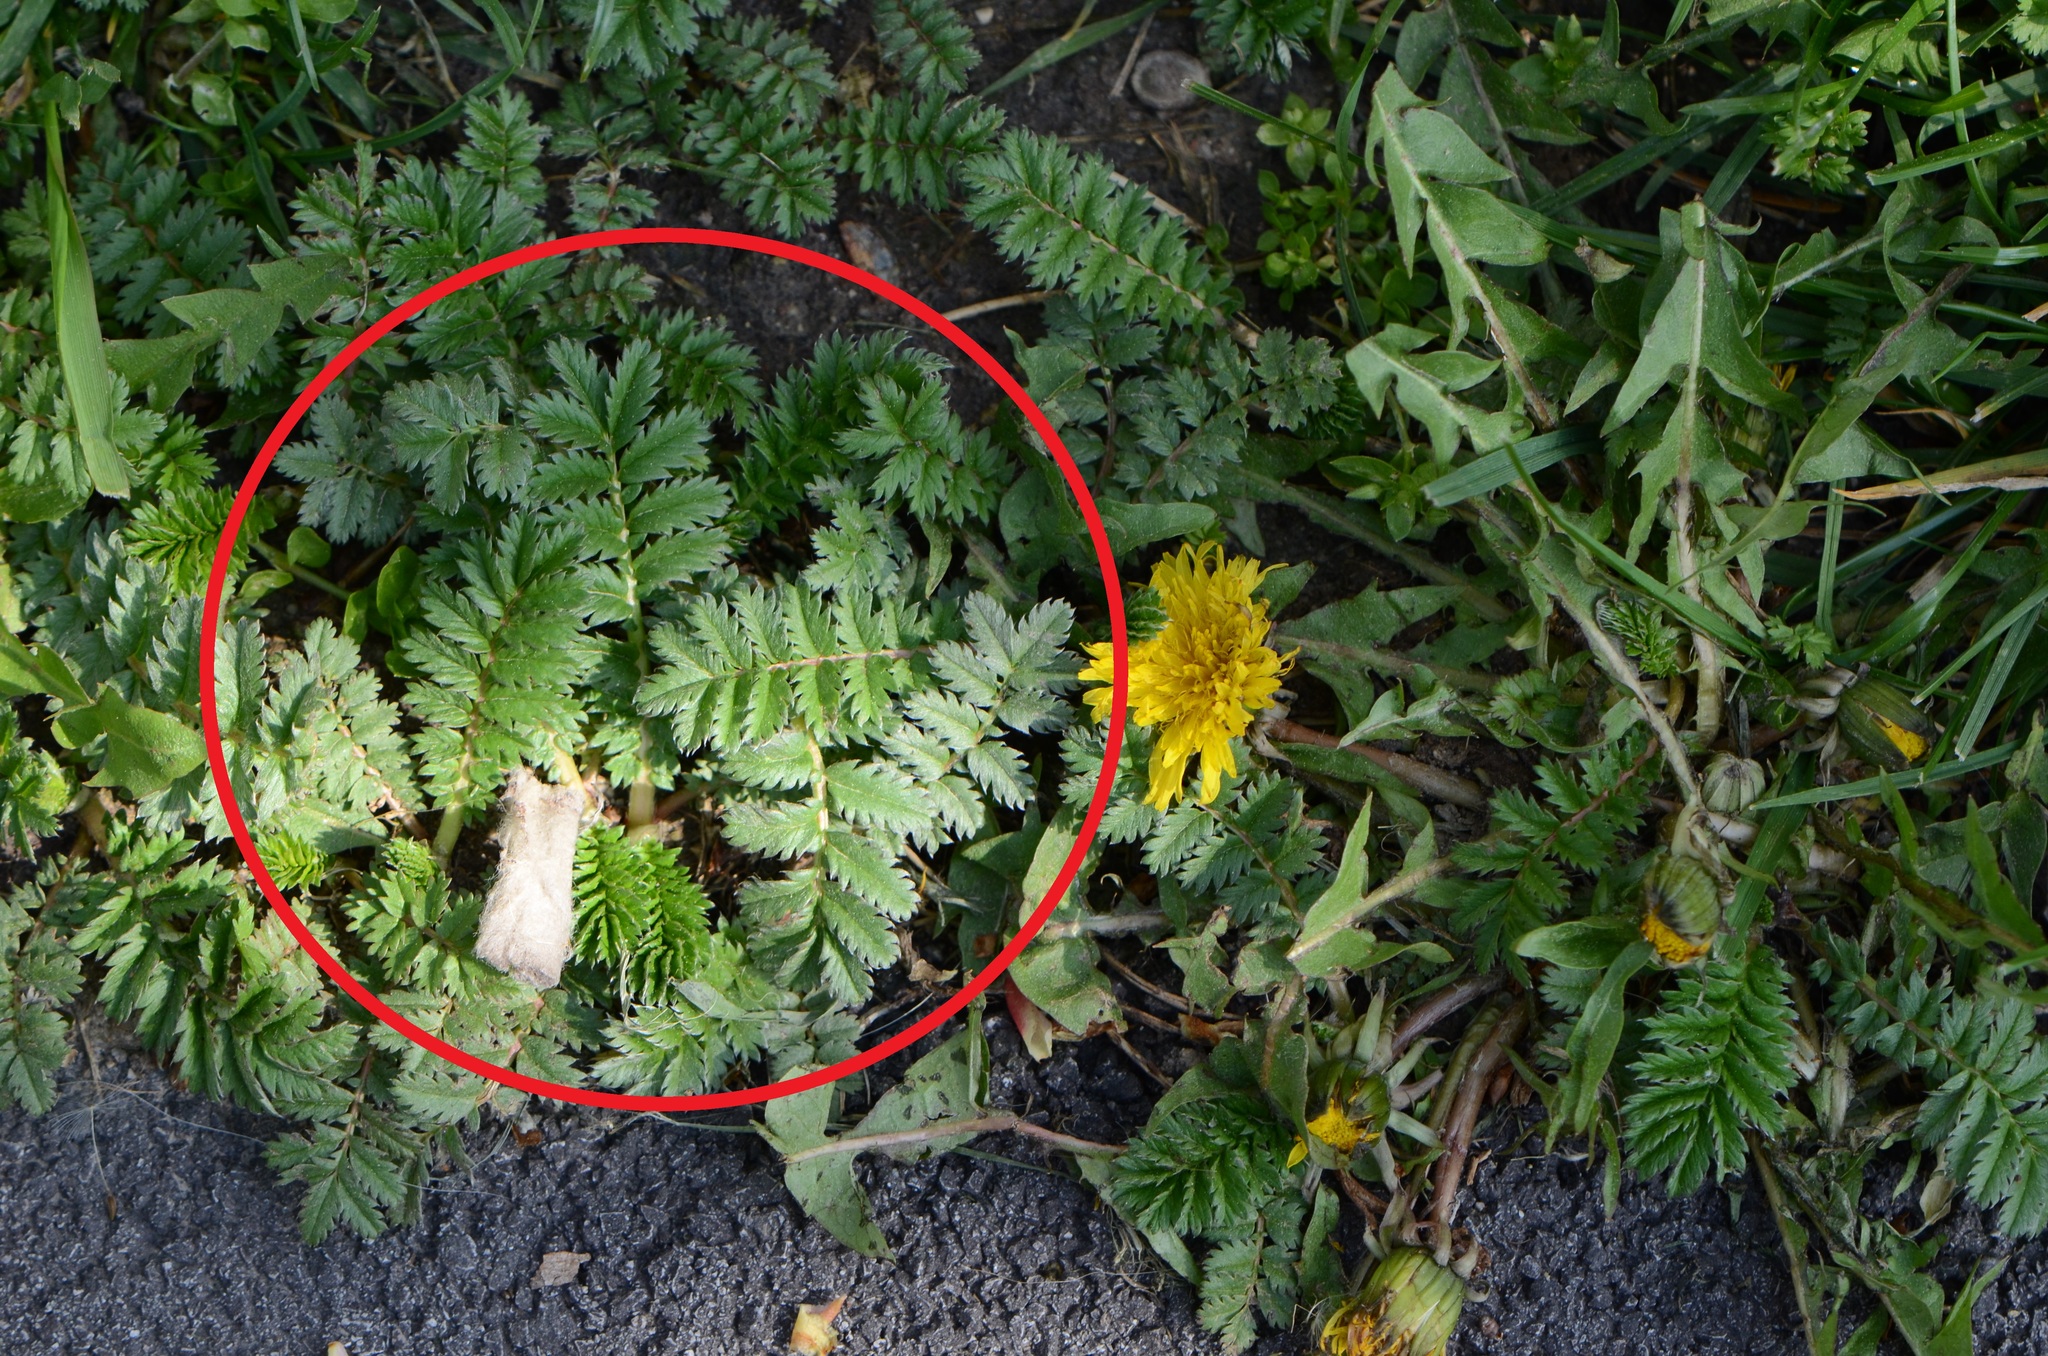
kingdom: Plantae
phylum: Tracheophyta
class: Magnoliopsida
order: Rosales
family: Rosaceae
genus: Argentina
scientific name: Argentina anserina
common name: Common silverweed
